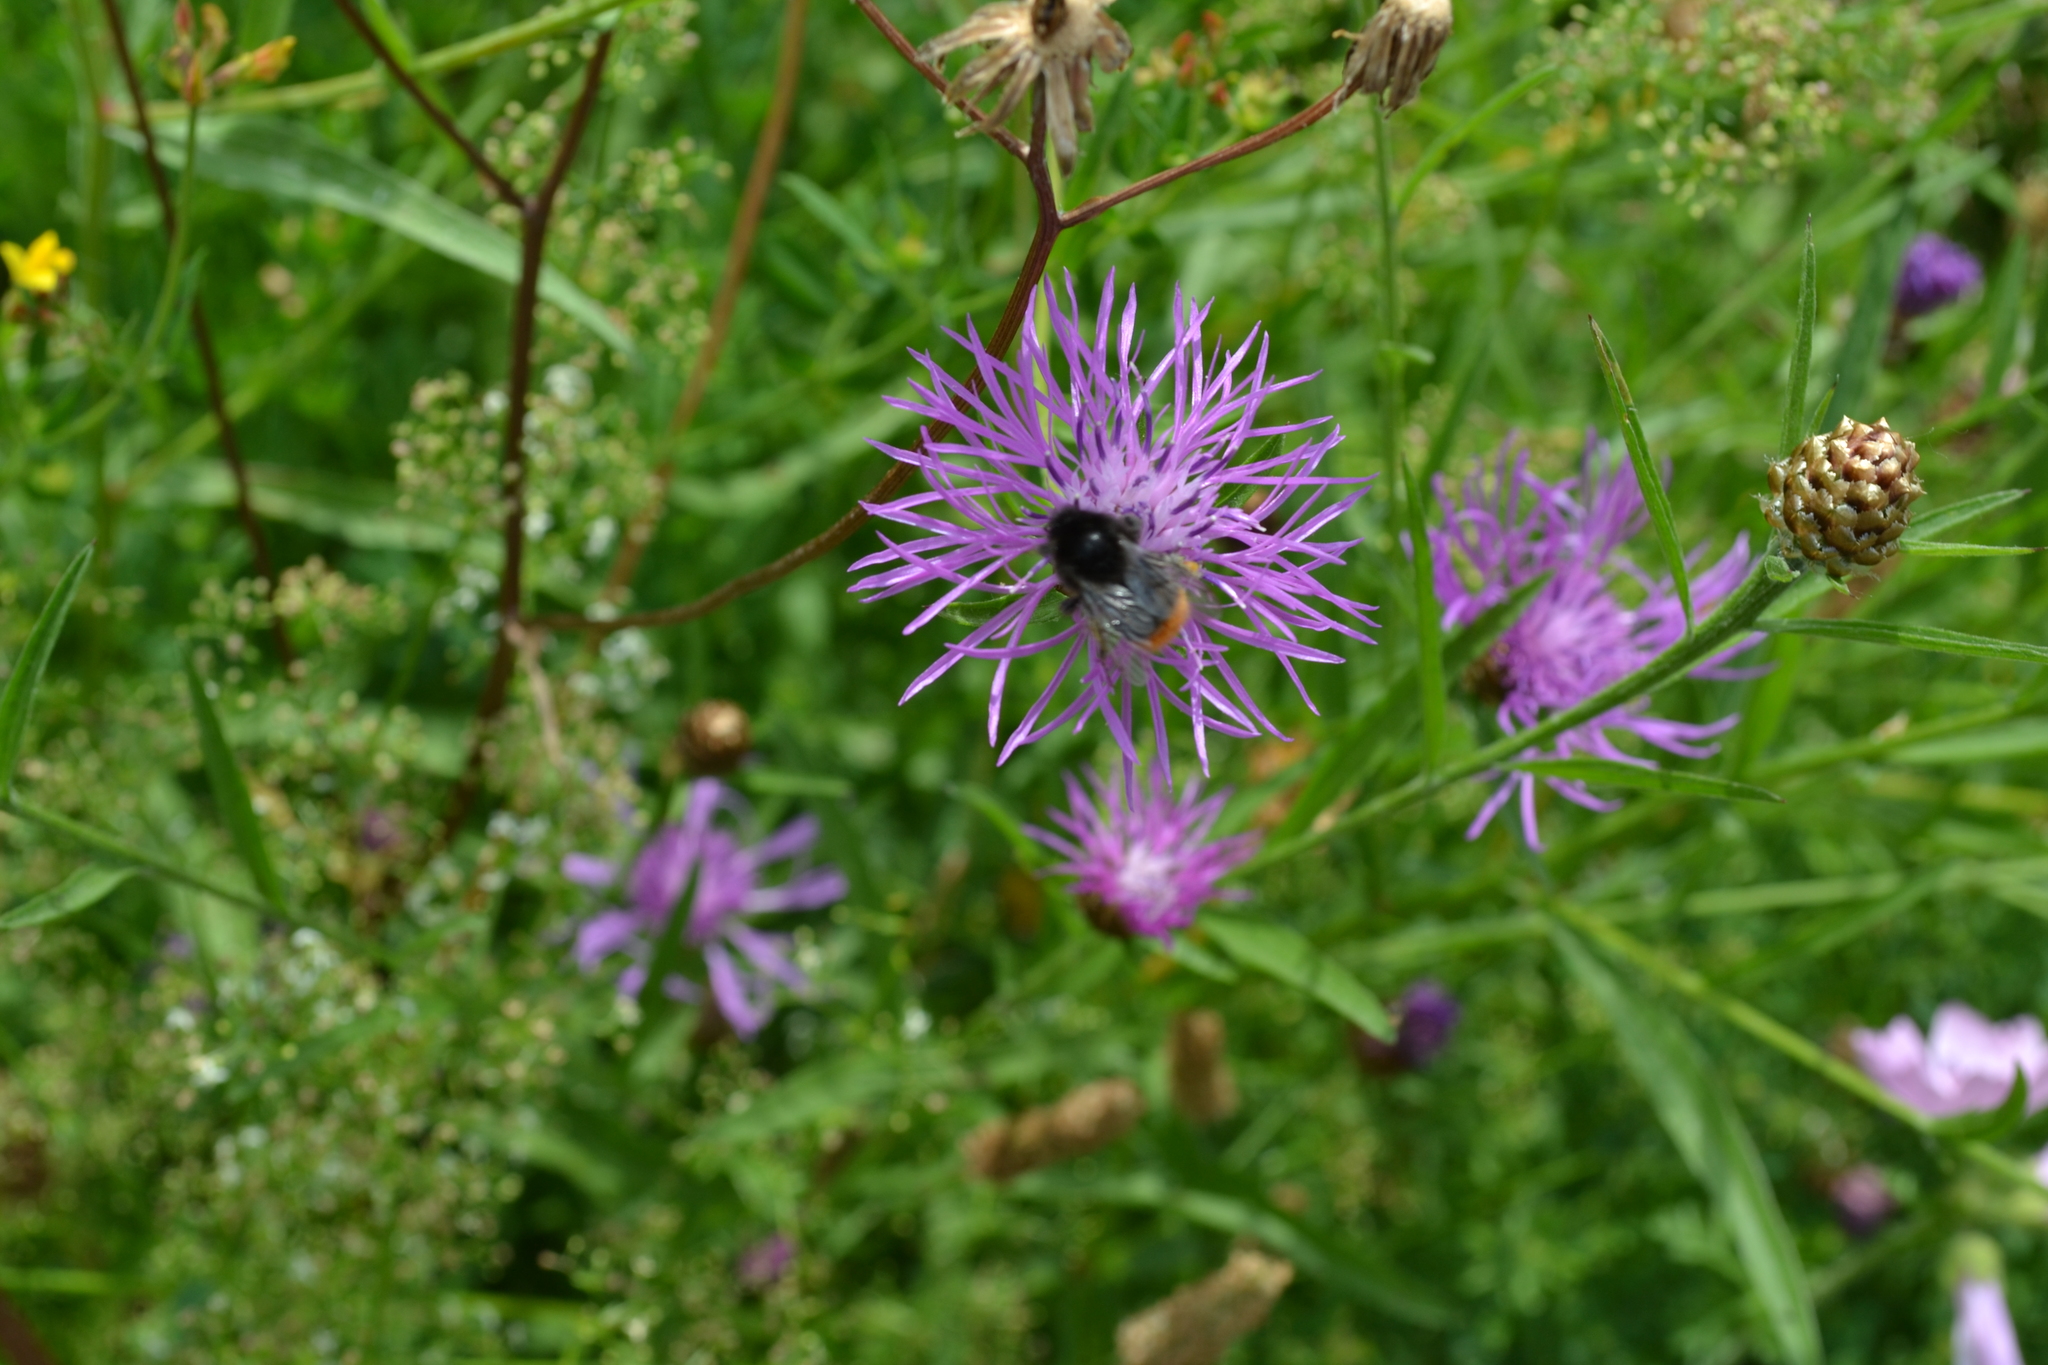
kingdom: Animalia
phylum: Arthropoda
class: Insecta
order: Hymenoptera
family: Apidae
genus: Bombus
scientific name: Bombus lapidarius
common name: Large red-tailed humble-bee
